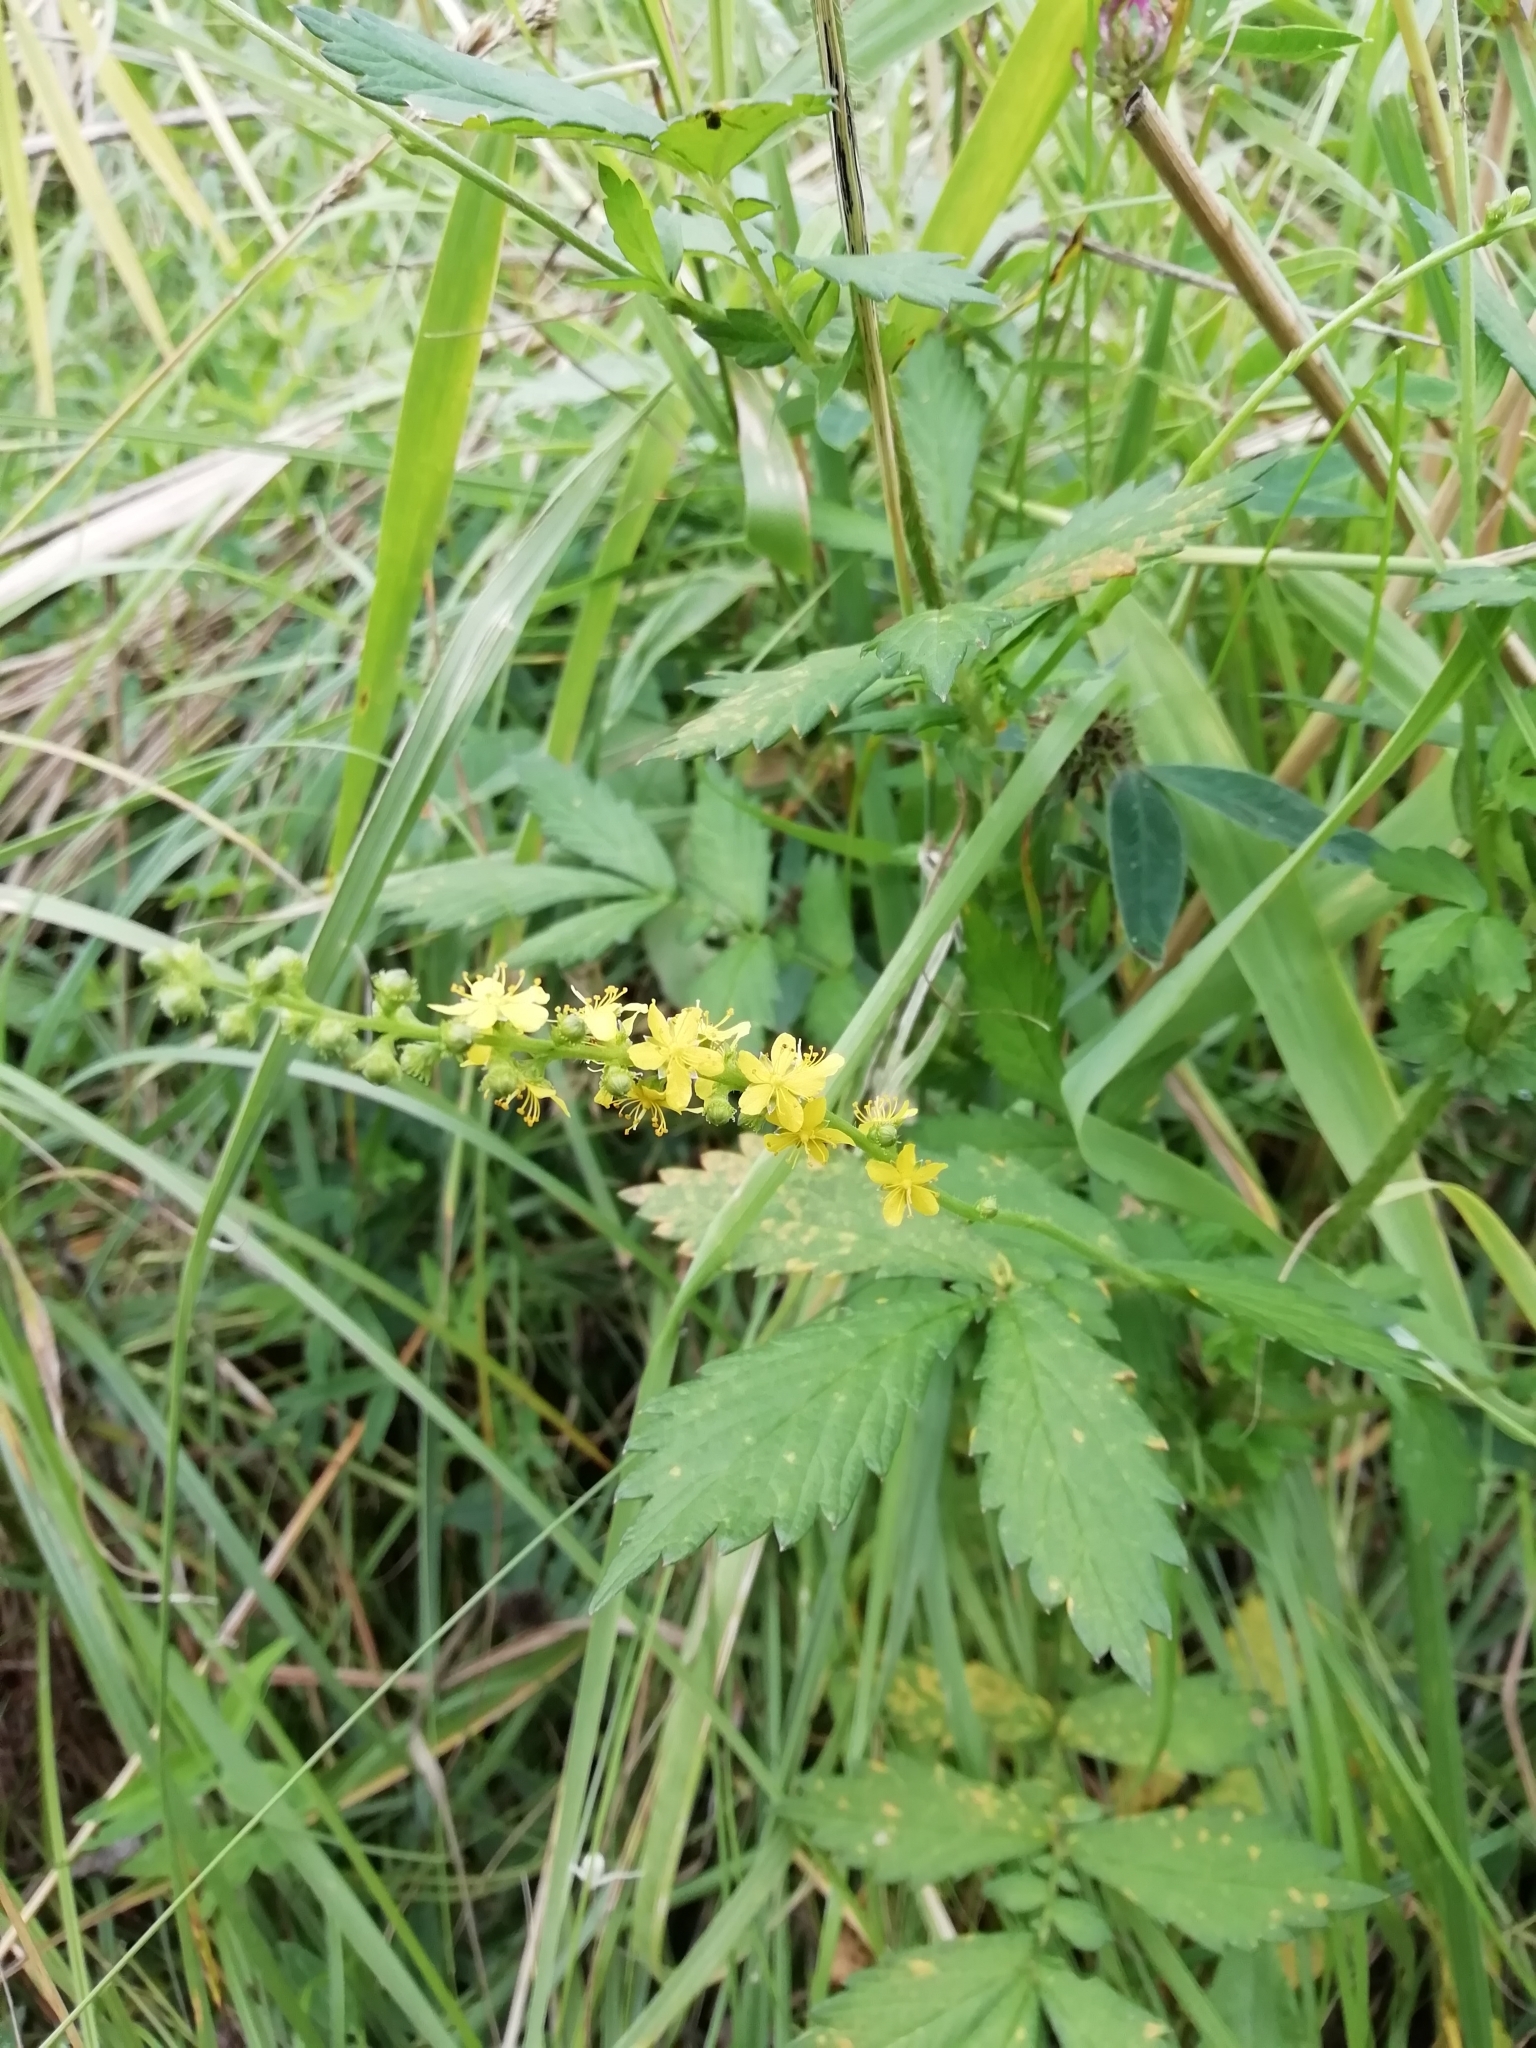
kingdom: Plantae
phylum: Tracheophyta
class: Magnoliopsida
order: Rosales
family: Rosaceae
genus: Agrimonia
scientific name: Agrimonia pilosa
